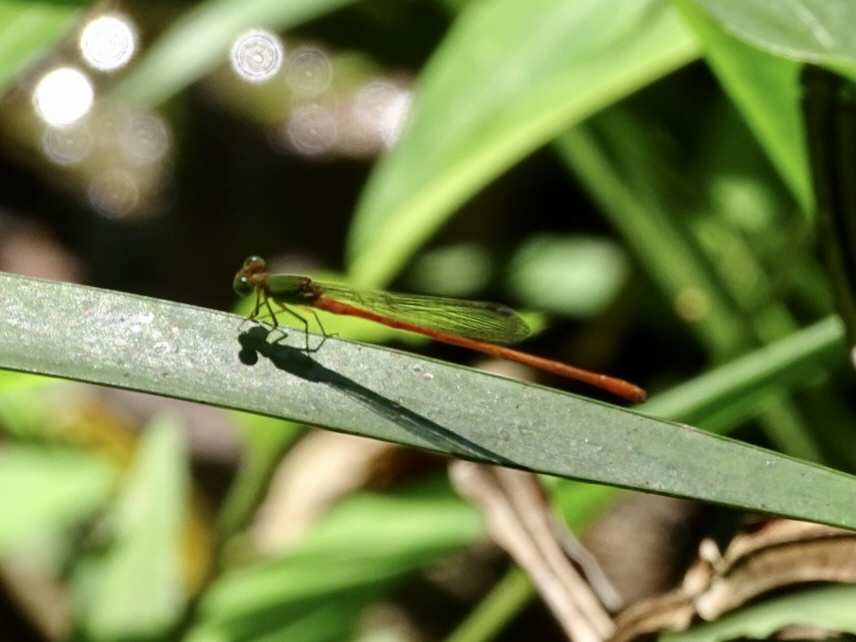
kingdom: Animalia
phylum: Arthropoda
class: Insecta
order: Odonata
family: Coenagrionidae
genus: Ceriagrion
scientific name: Ceriagrion auranticum
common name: Orange-tailed sprite
